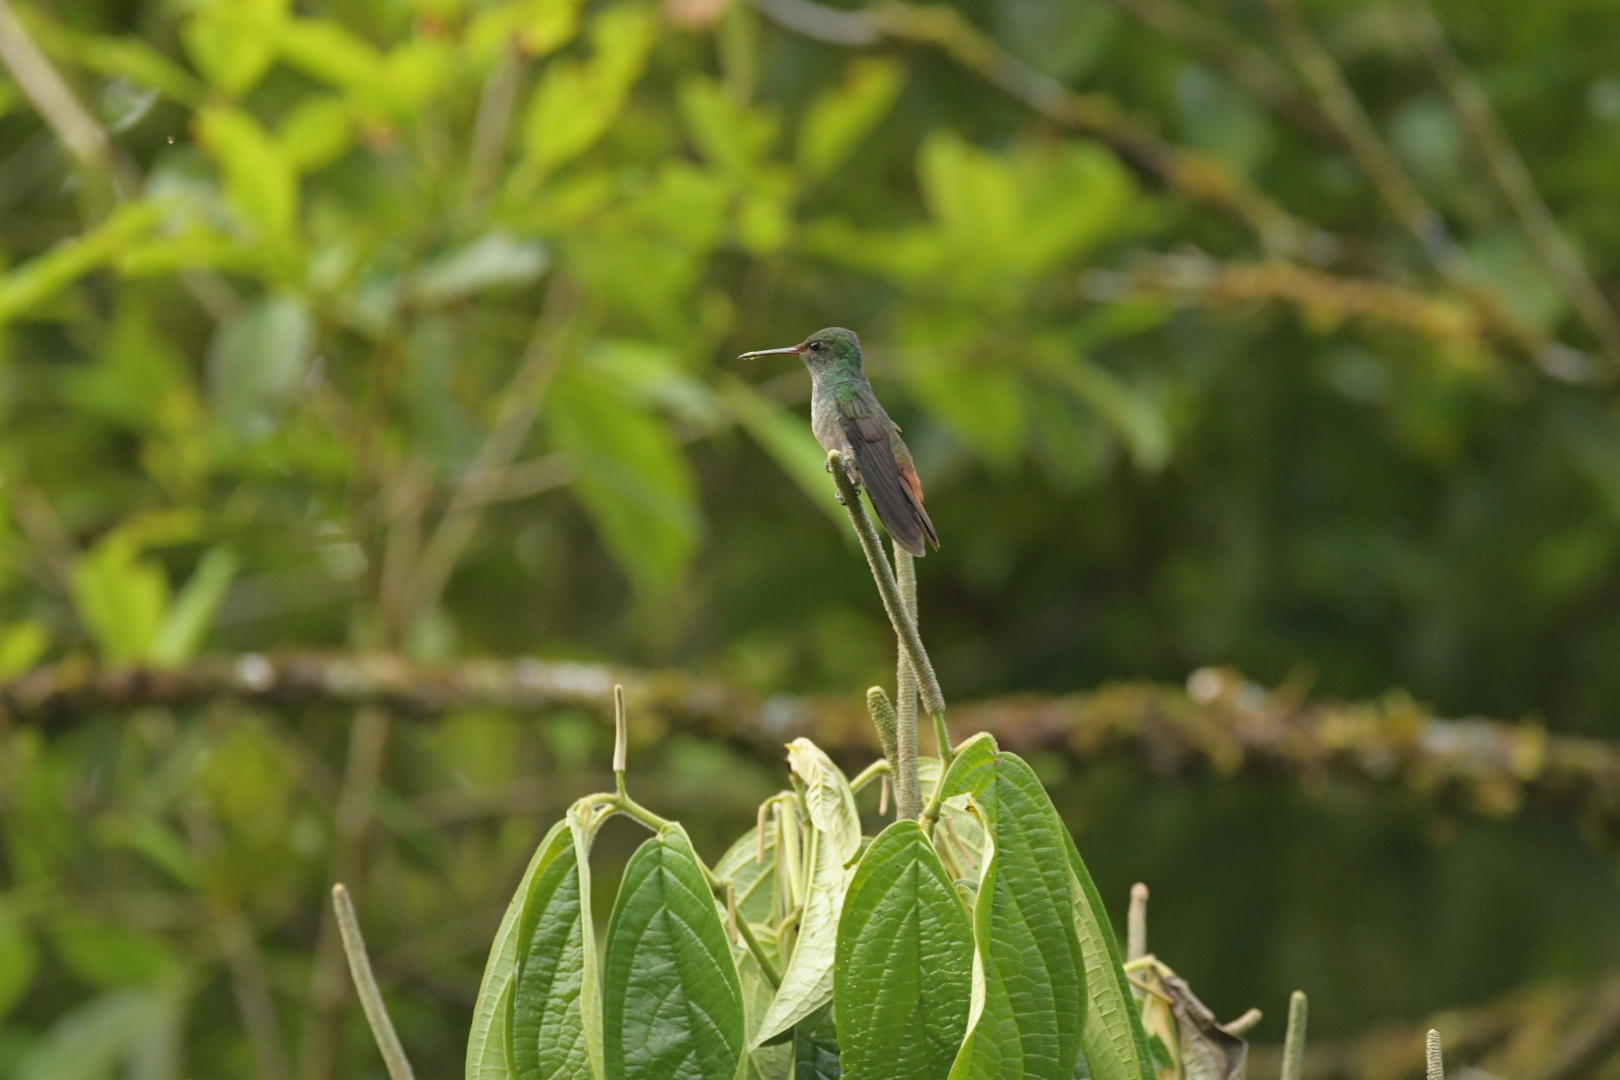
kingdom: Animalia
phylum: Chordata
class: Aves
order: Apodiformes
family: Trochilidae
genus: Amazilia
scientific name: Amazilia tzacatl
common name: Rufous-tailed hummingbird
